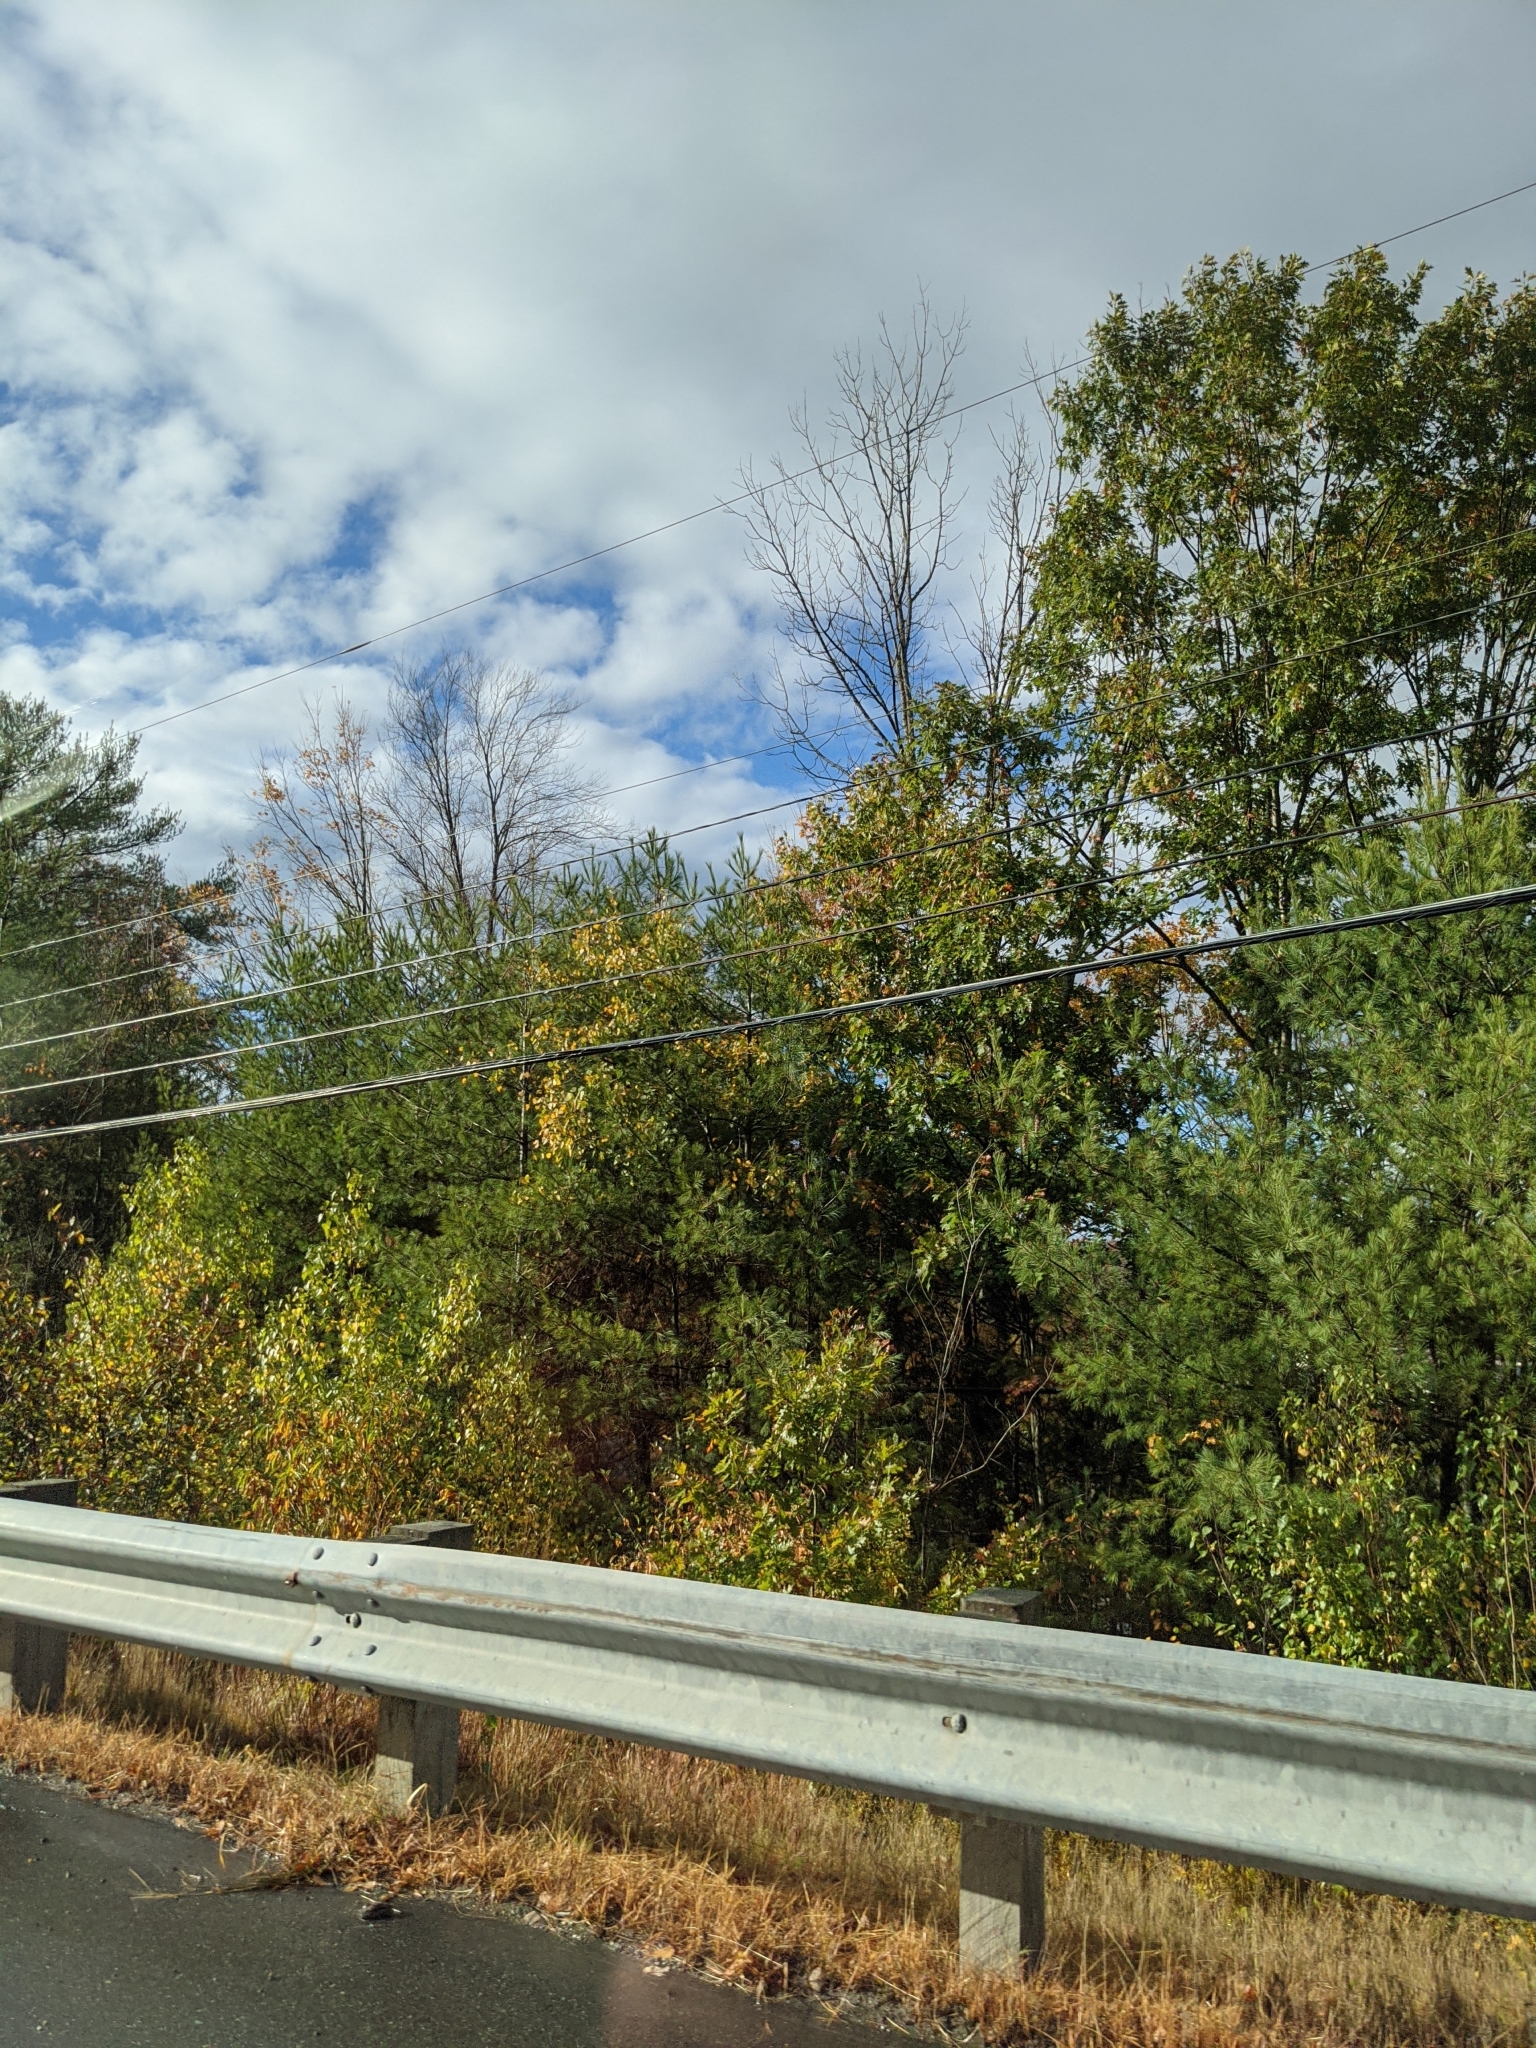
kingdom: Plantae
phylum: Tracheophyta
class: Pinopsida
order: Pinales
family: Pinaceae
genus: Pinus
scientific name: Pinus strobus
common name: Weymouth pine
